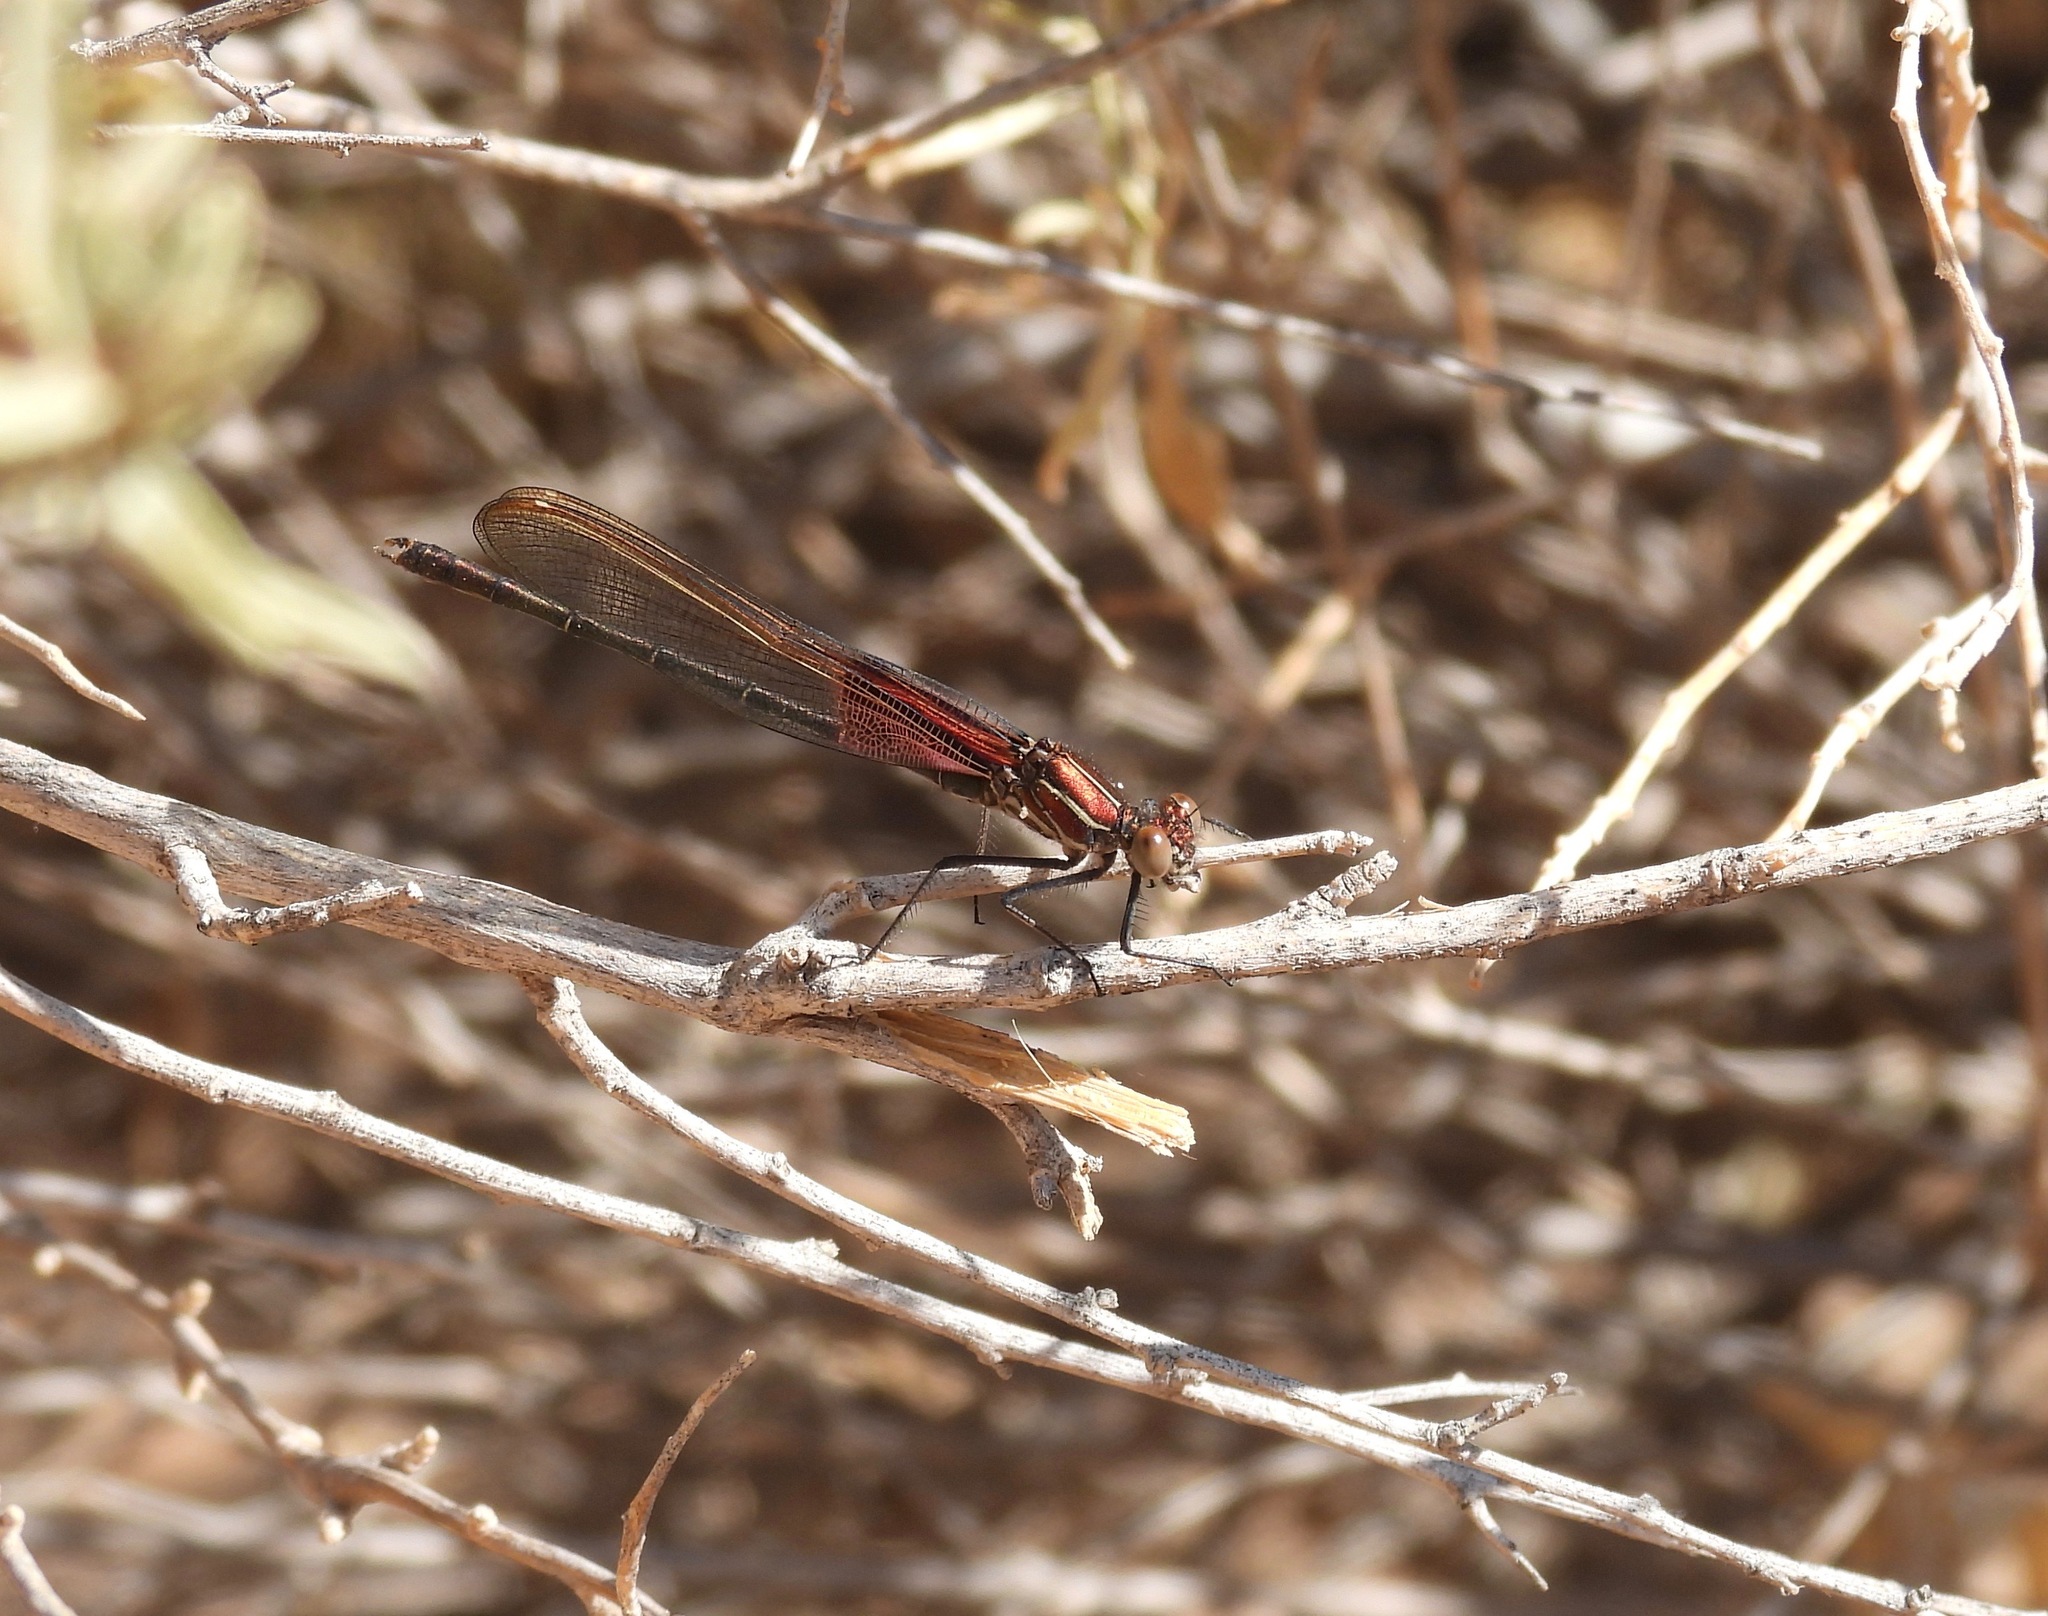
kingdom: Animalia
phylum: Arthropoda
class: Insecta
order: Odonata
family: Calopterygidae
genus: Hetaerina
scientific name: Hetaerina americana
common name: American rubyspot
